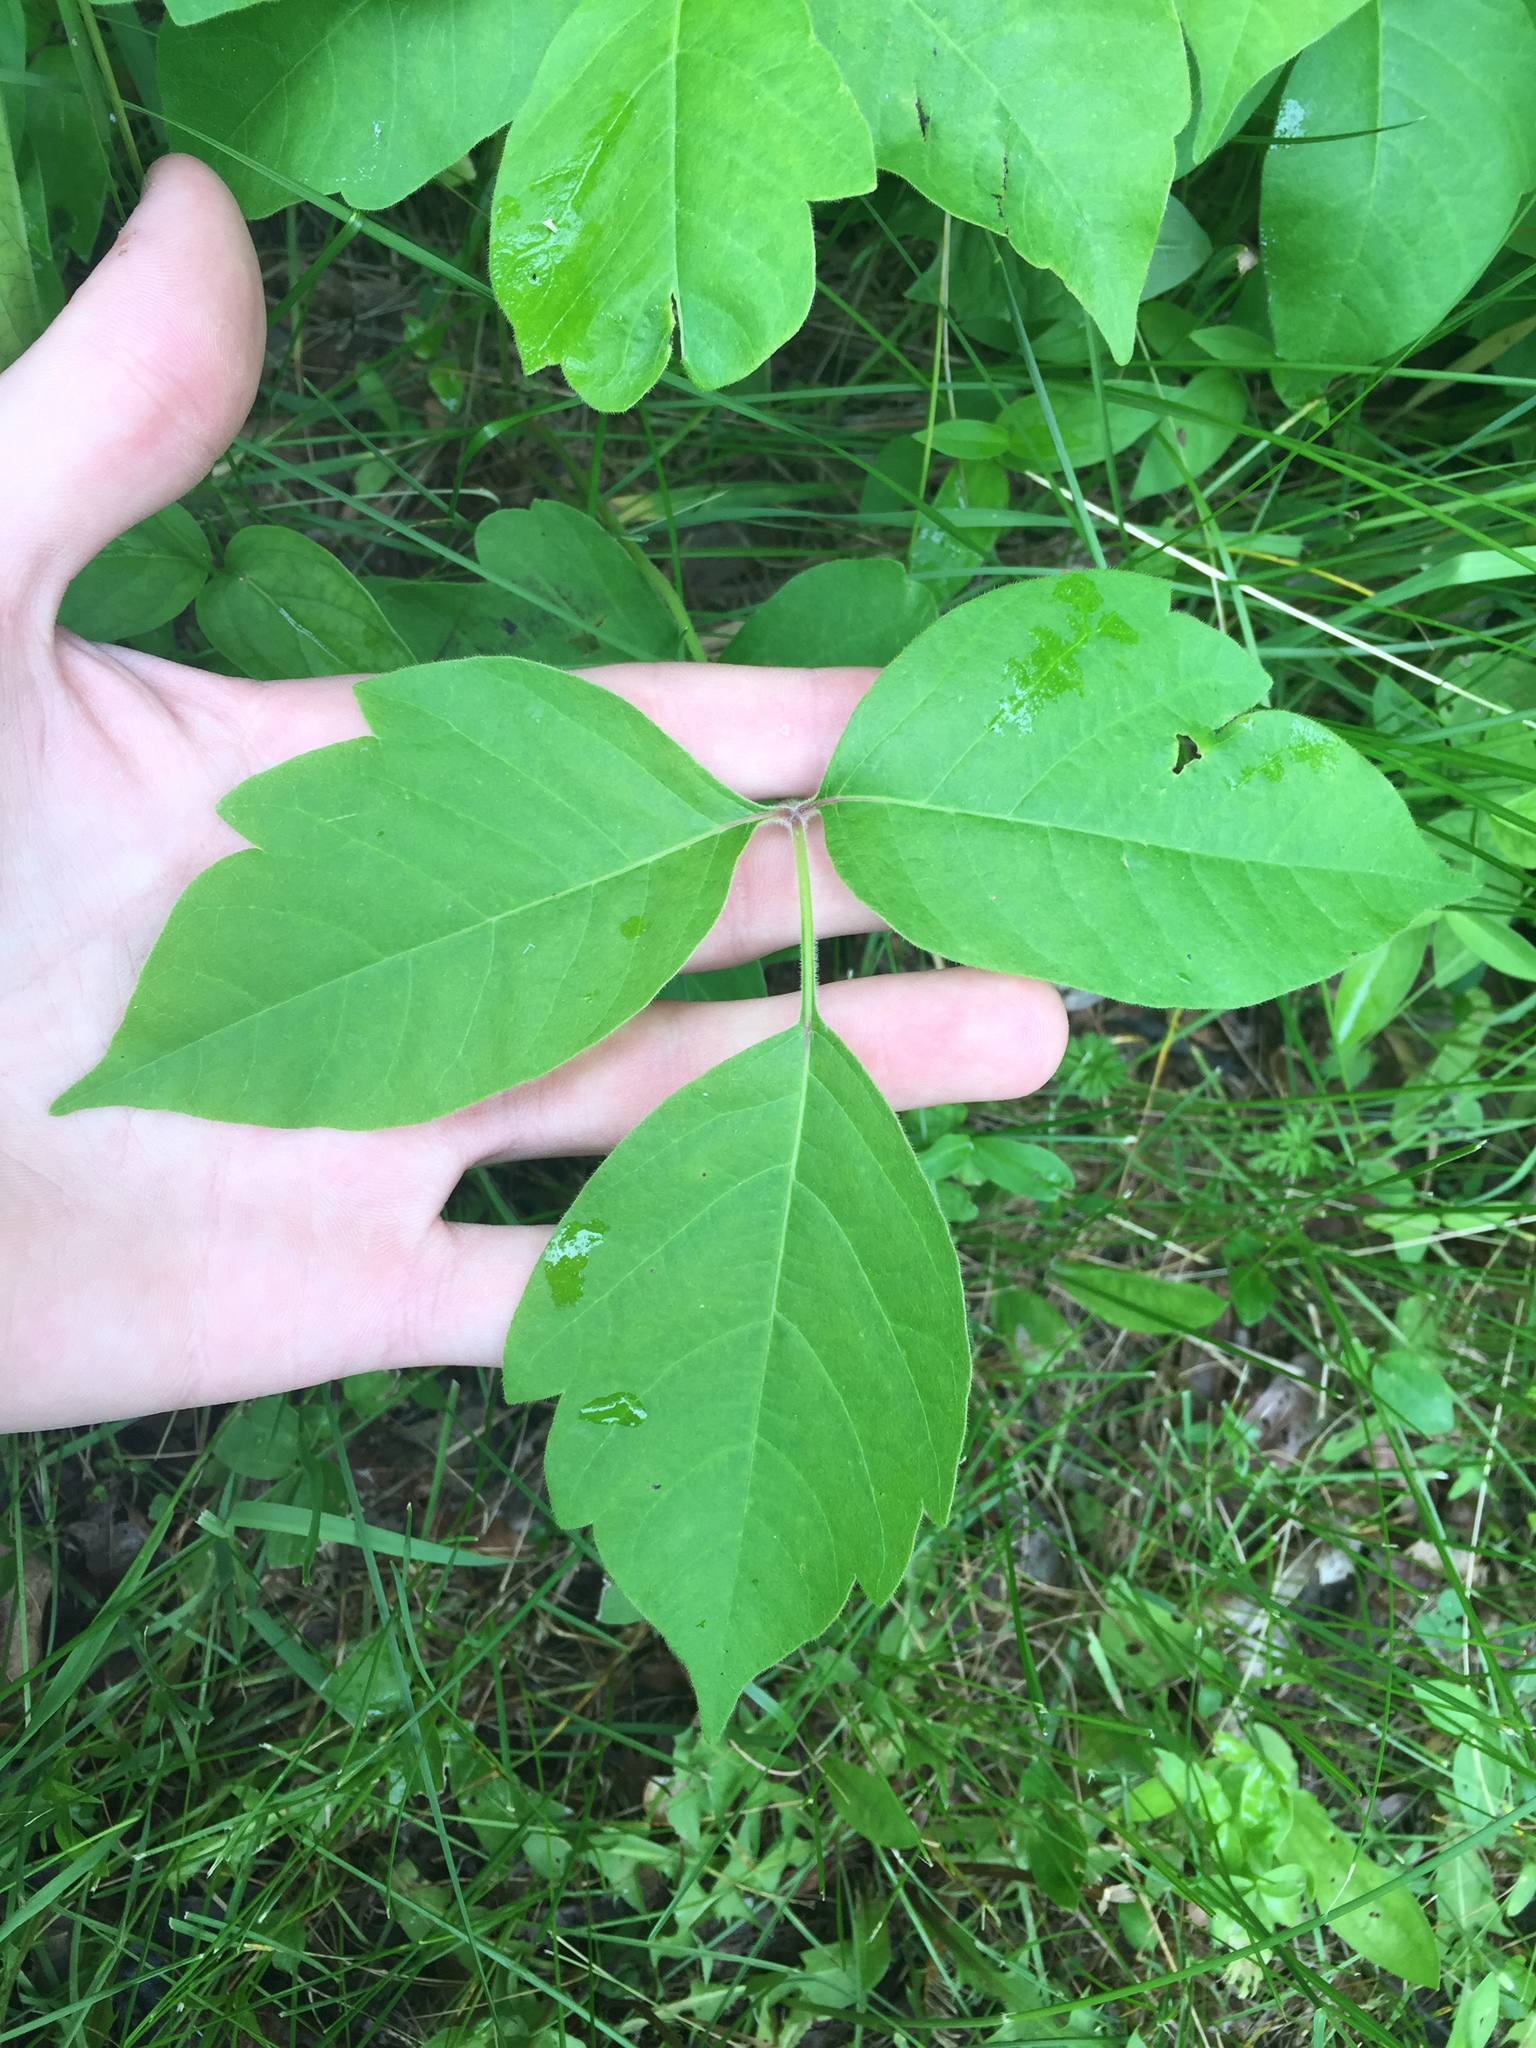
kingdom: Plantae
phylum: Tracheophyta
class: Magnoliopsida
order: Sapindales
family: Anacardiaceae
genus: Toxicodendron
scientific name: Toxicodendron radicans
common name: Poison ivy
